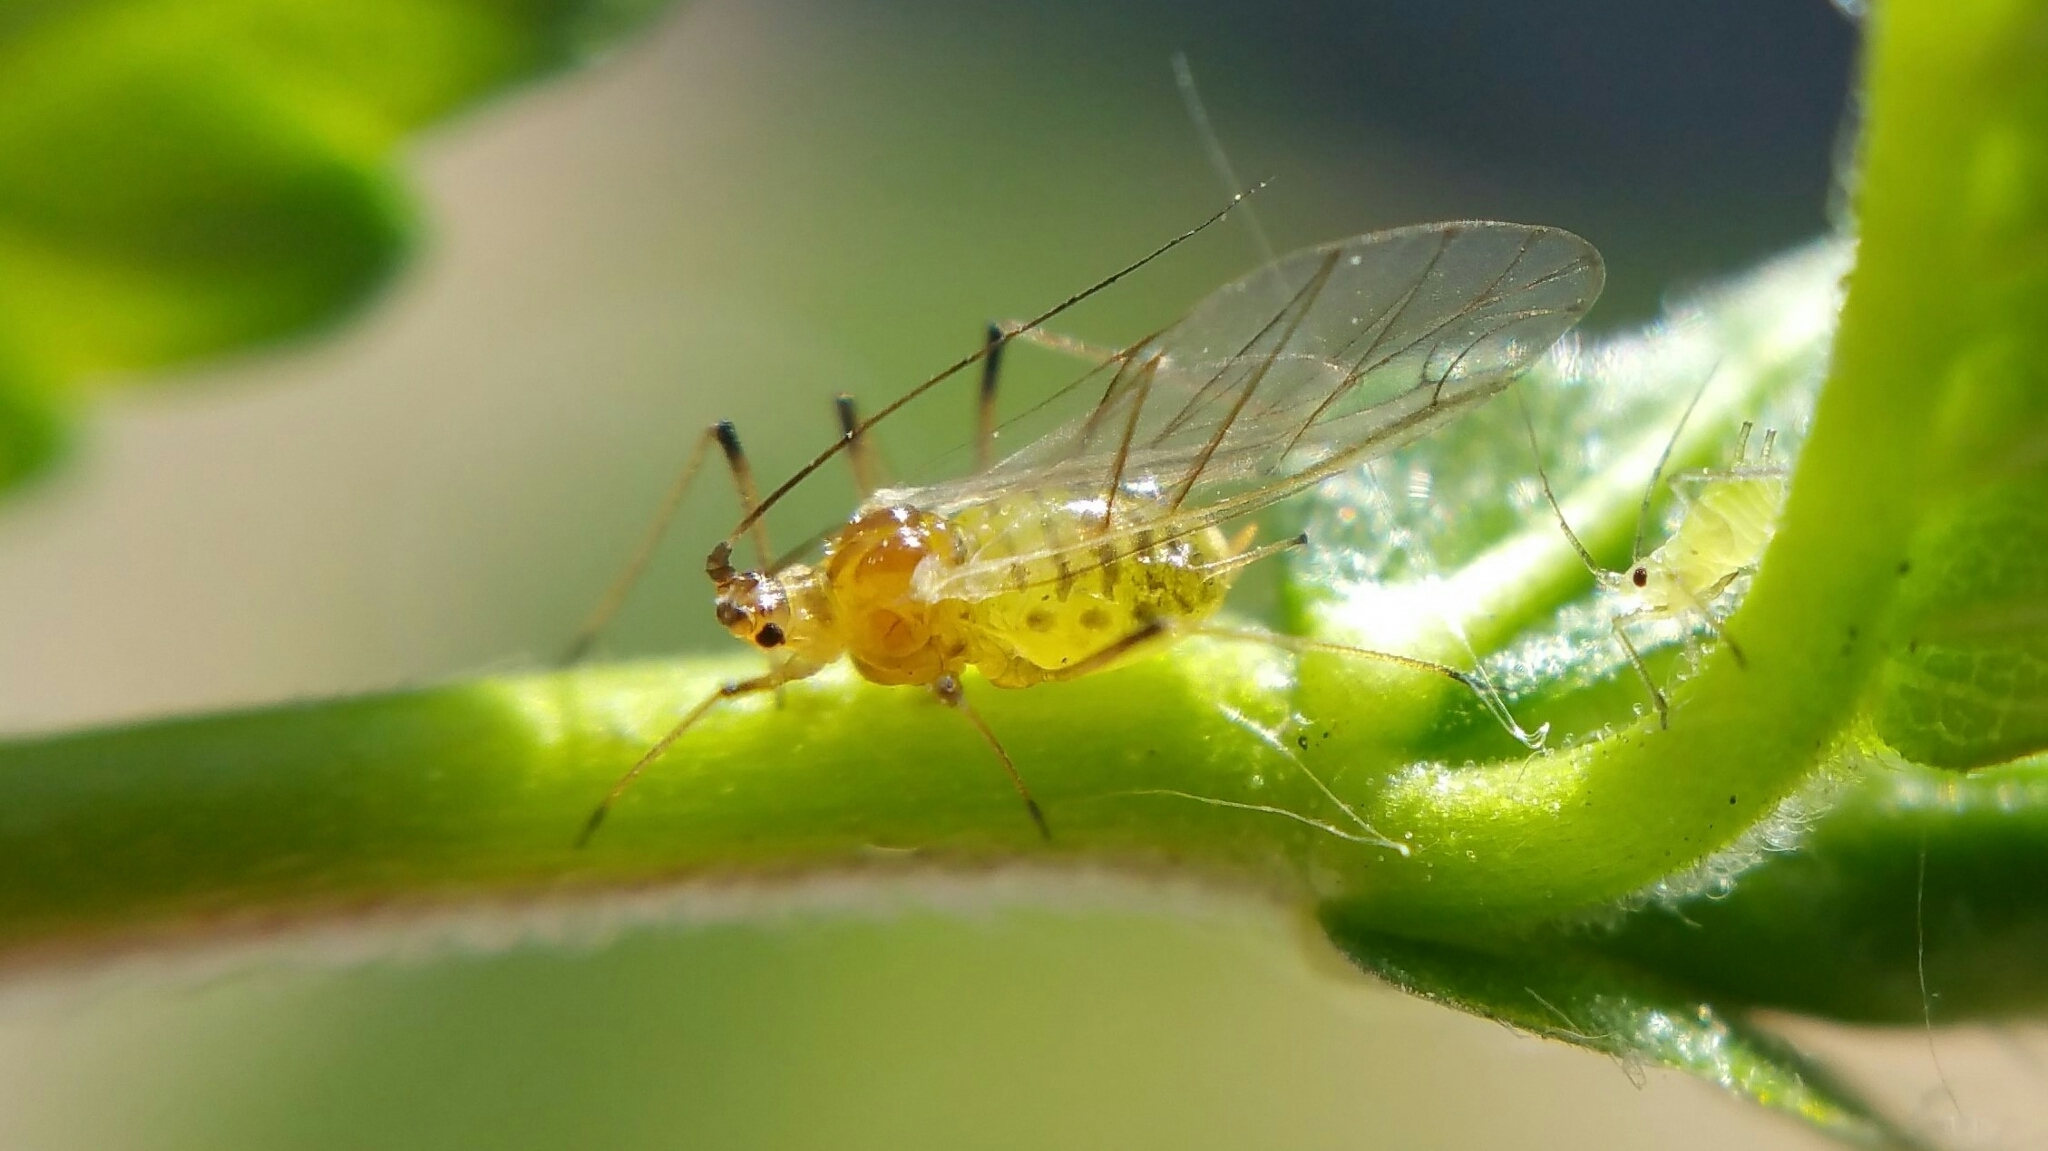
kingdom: Animalia
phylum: Arthropoda
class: Insecta
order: Hemiptera
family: Aphididae
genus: Aulacorthum
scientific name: Aulacorthum solani
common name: Foxglove aphid
